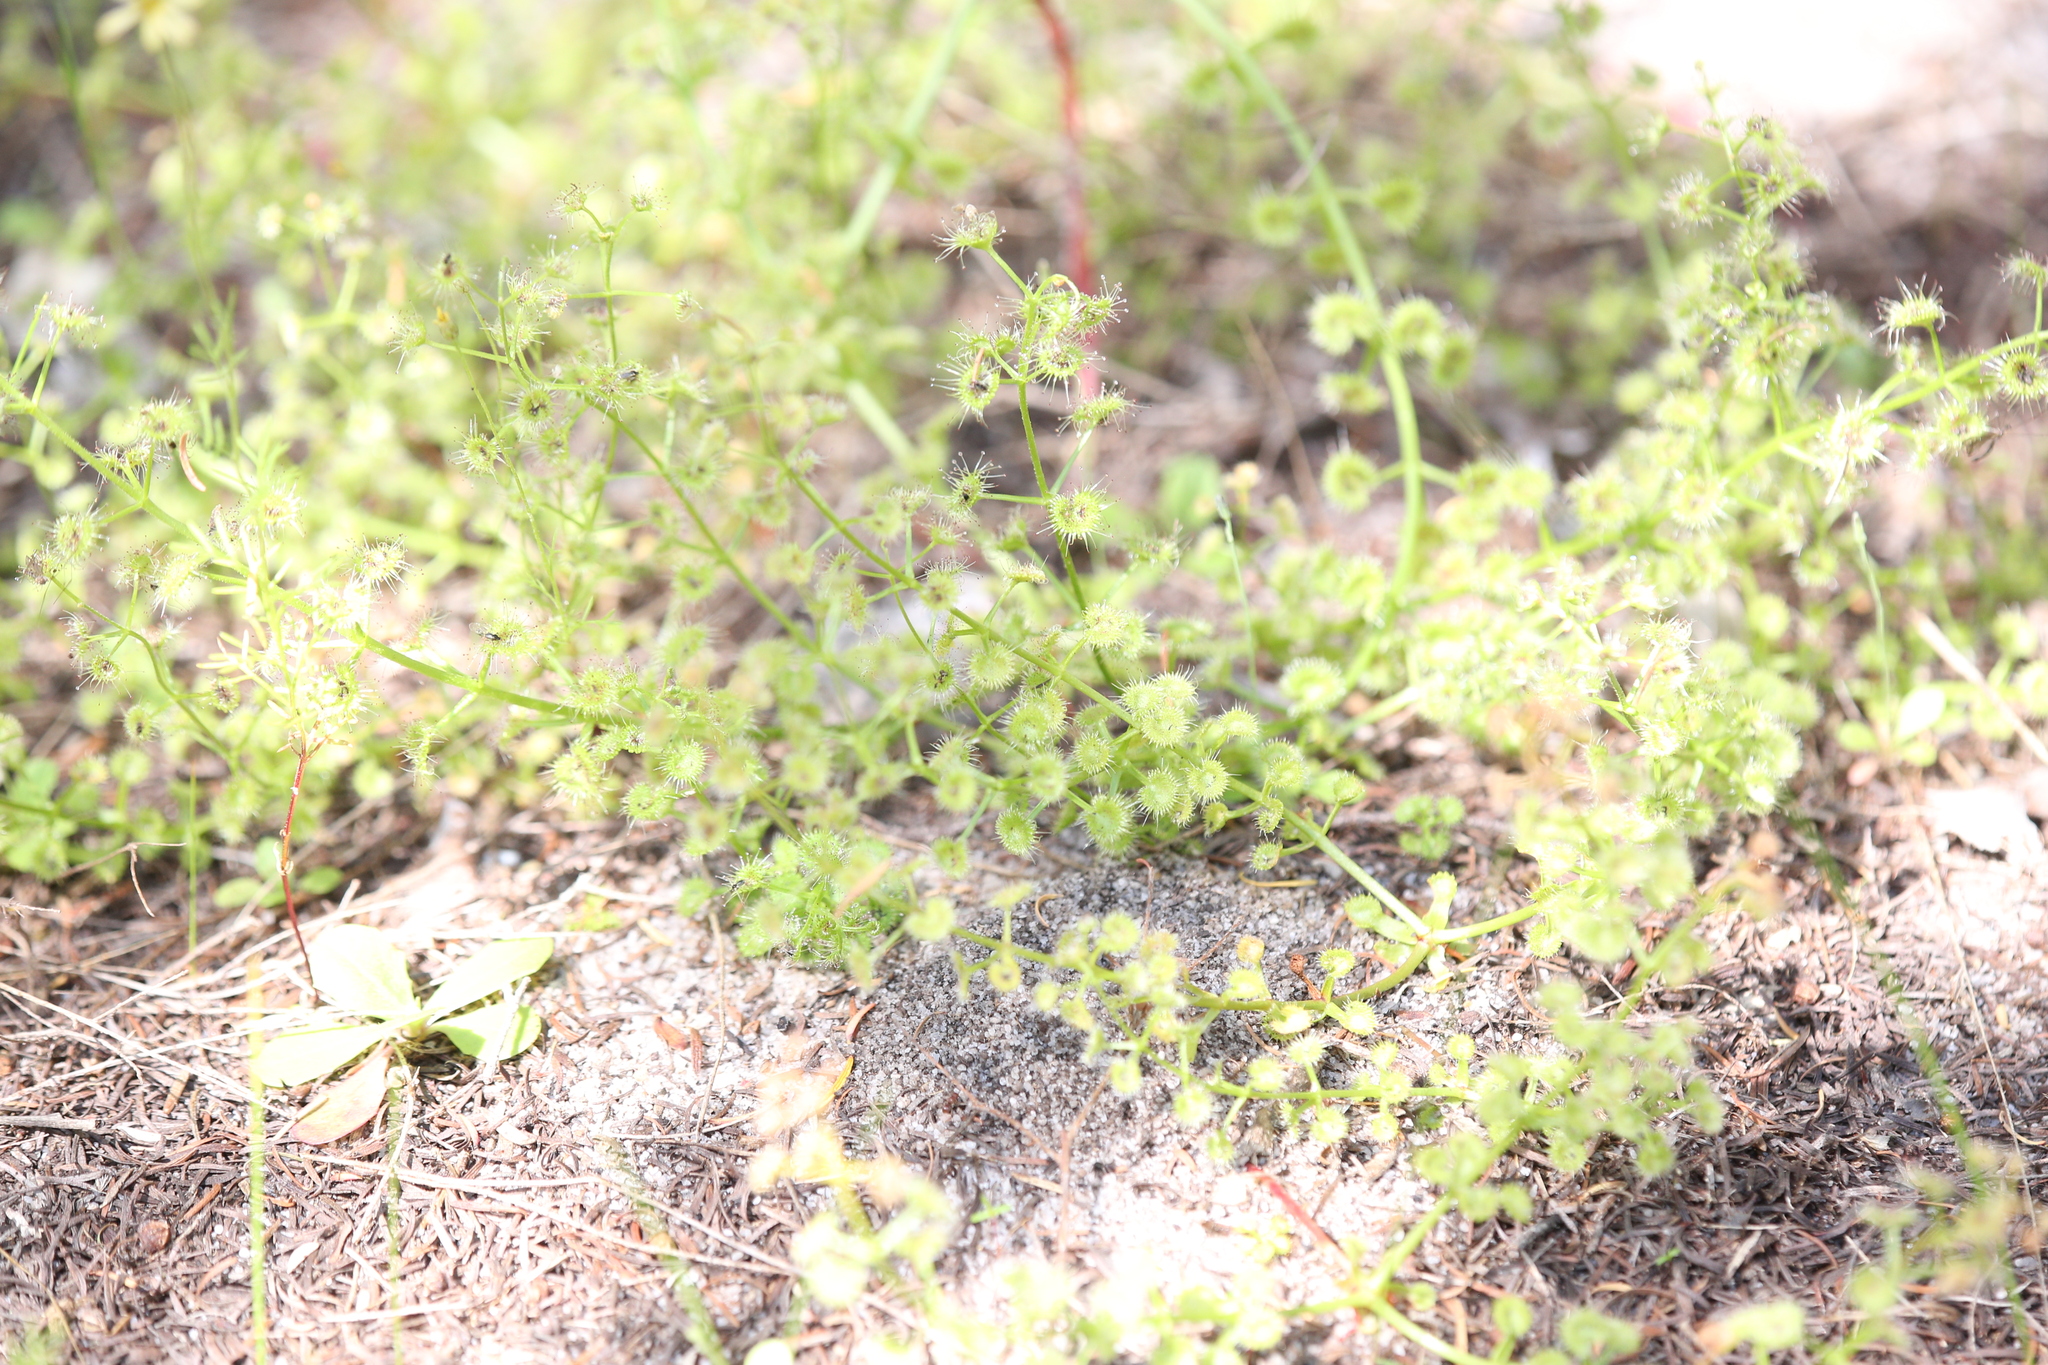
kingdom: Plantae
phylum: Tracheophyta
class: Magnoliopsida
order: Caryophyllales
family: Droseraceae
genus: Drosera
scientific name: Drosera stolonifera
